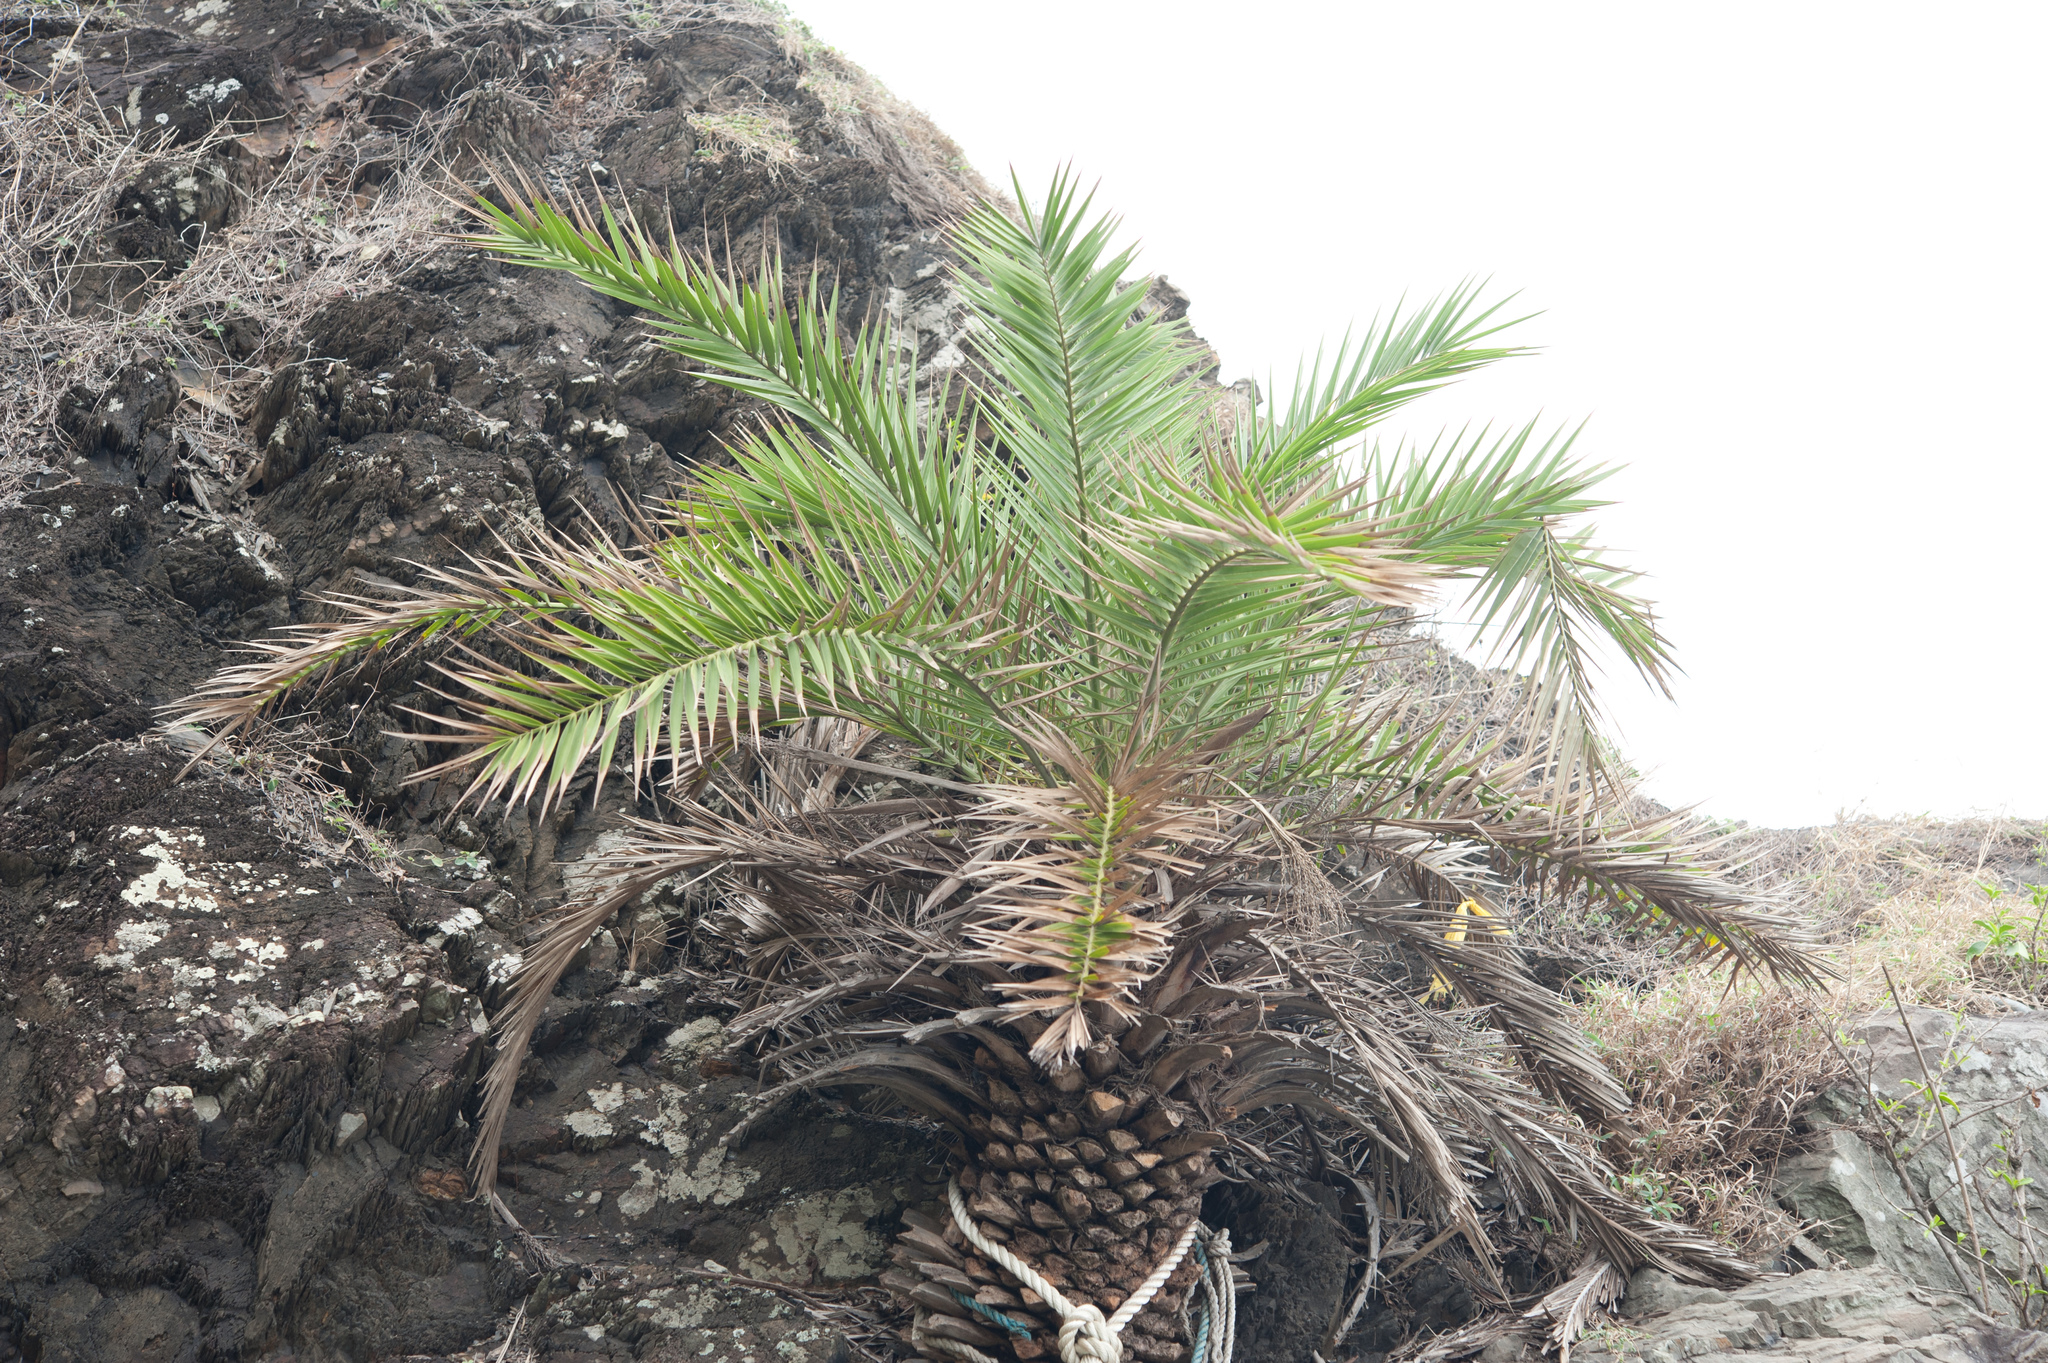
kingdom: Plantae
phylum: Tracheophyta
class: Liliopsida
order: Arecales
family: Arecaceae
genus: Phoenix
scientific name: Phoenix loureiroi
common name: Loureiro's palm
